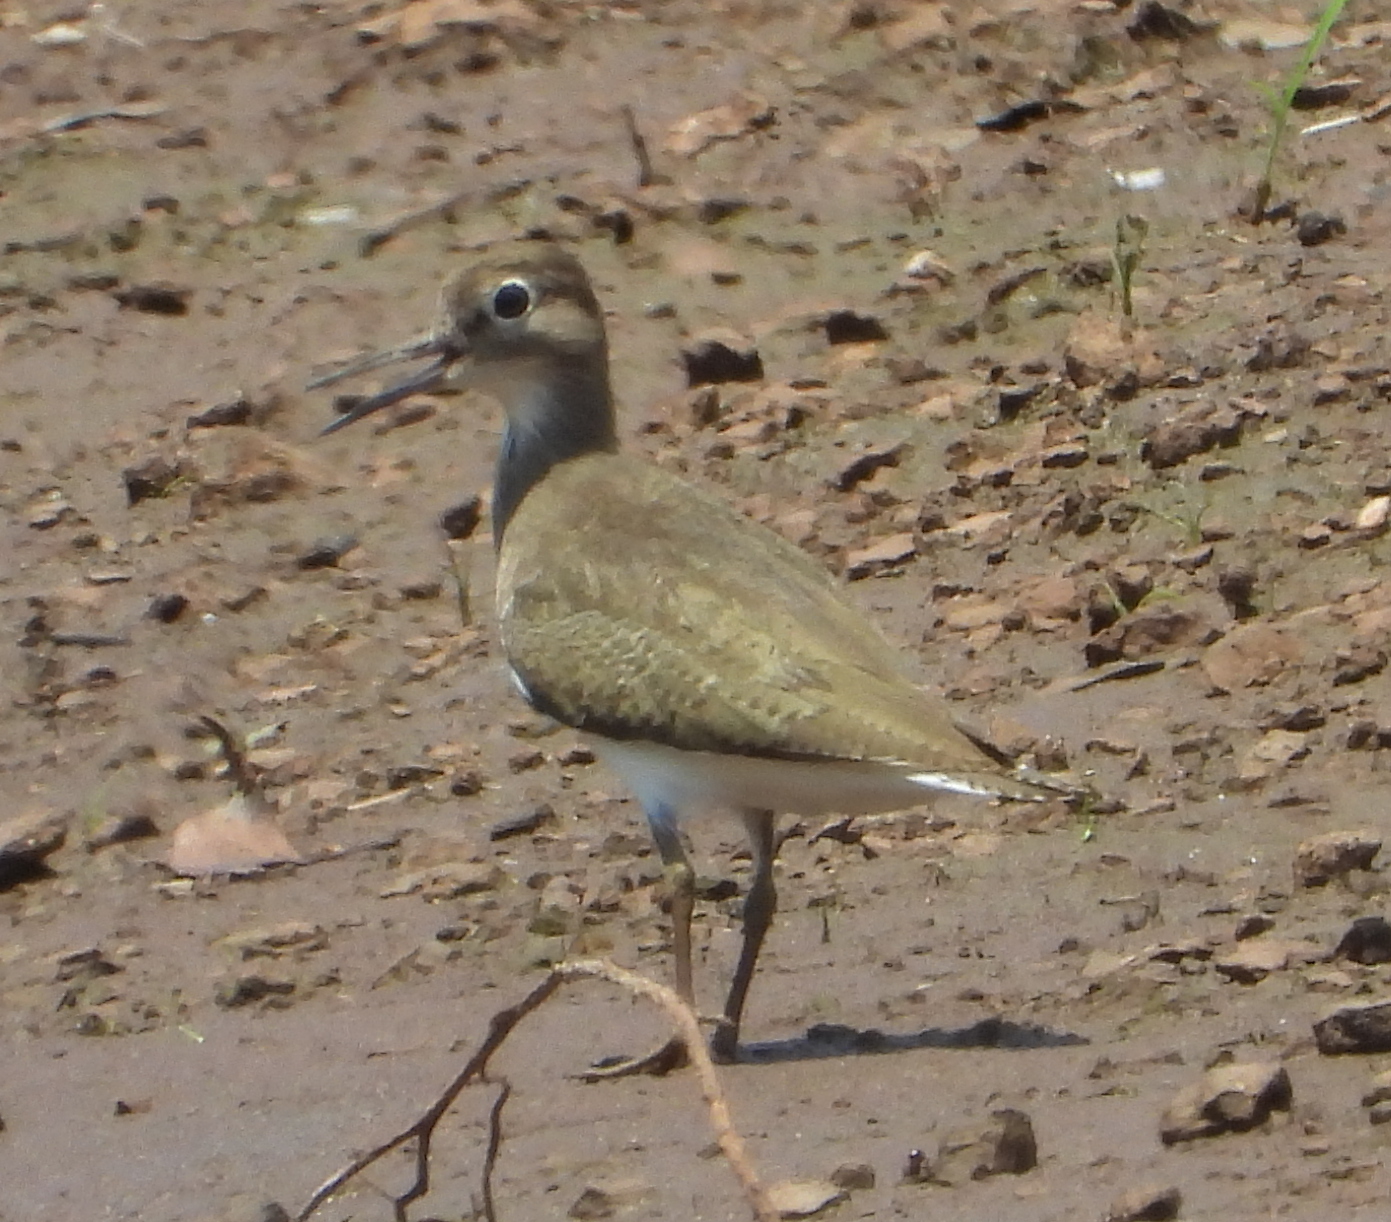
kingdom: Animalia
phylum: Chordata
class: Aves
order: Charadriiformes
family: Scolopacidae
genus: Actitis
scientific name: Actitis hypoleucos
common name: Common sandpiper
